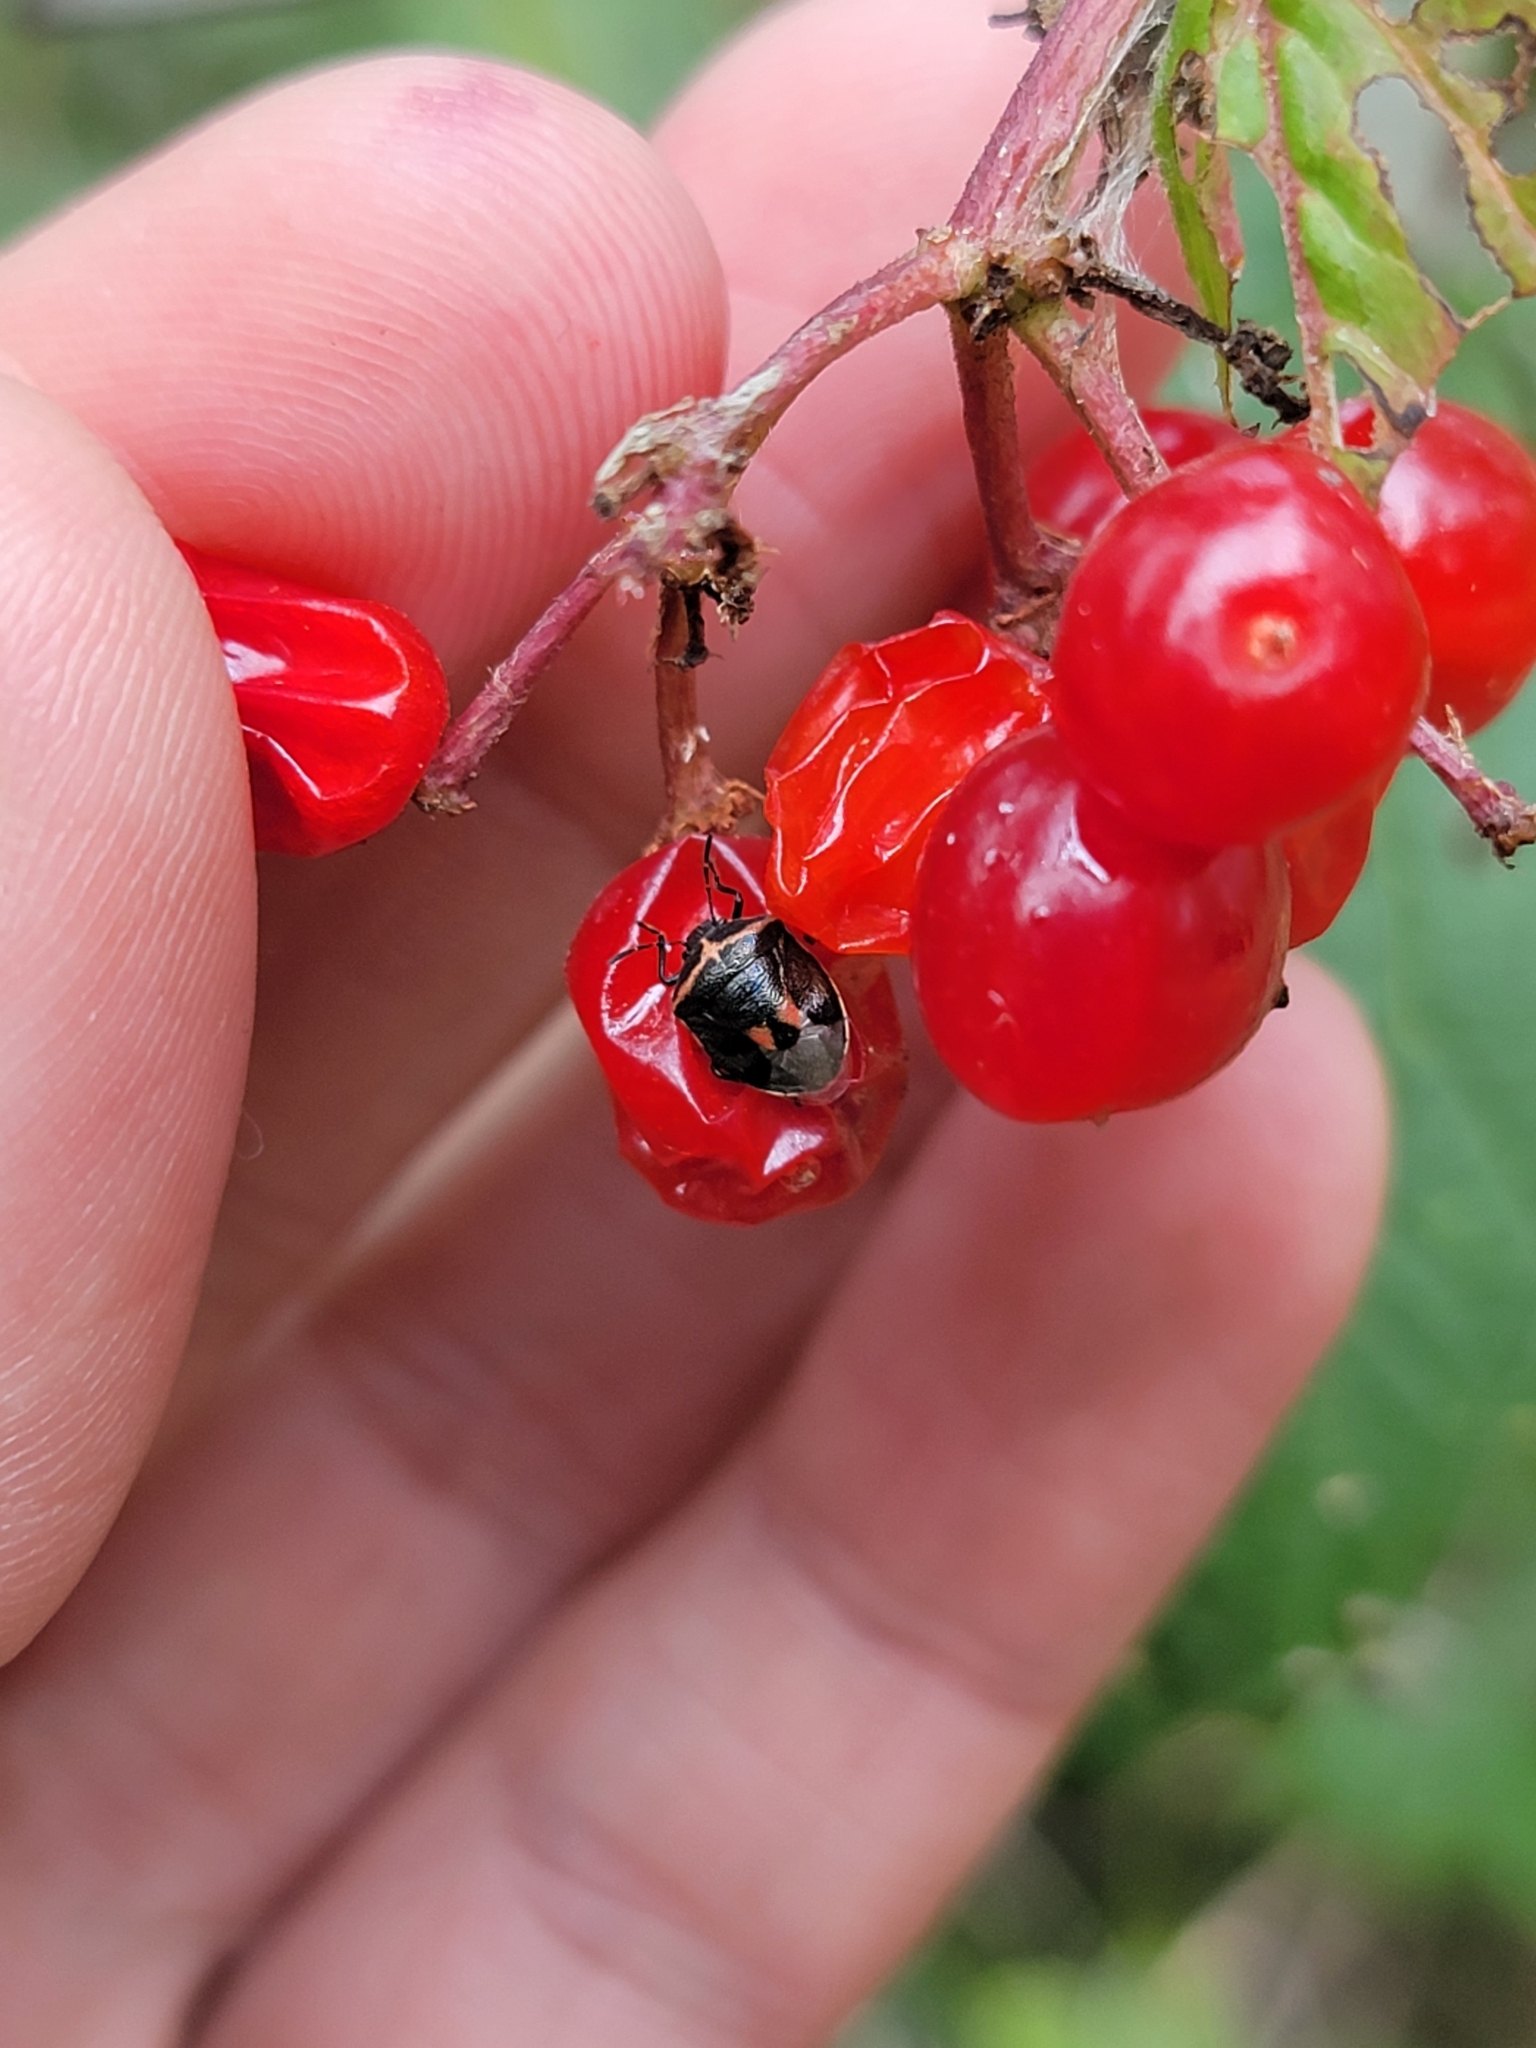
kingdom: Animalia
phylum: Arthropoda
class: Insecta
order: Hemiptera
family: Pentatomidae
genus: Cosmopepla
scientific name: Cosmopepla lintneriana
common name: Twice-stabbed stink bug
